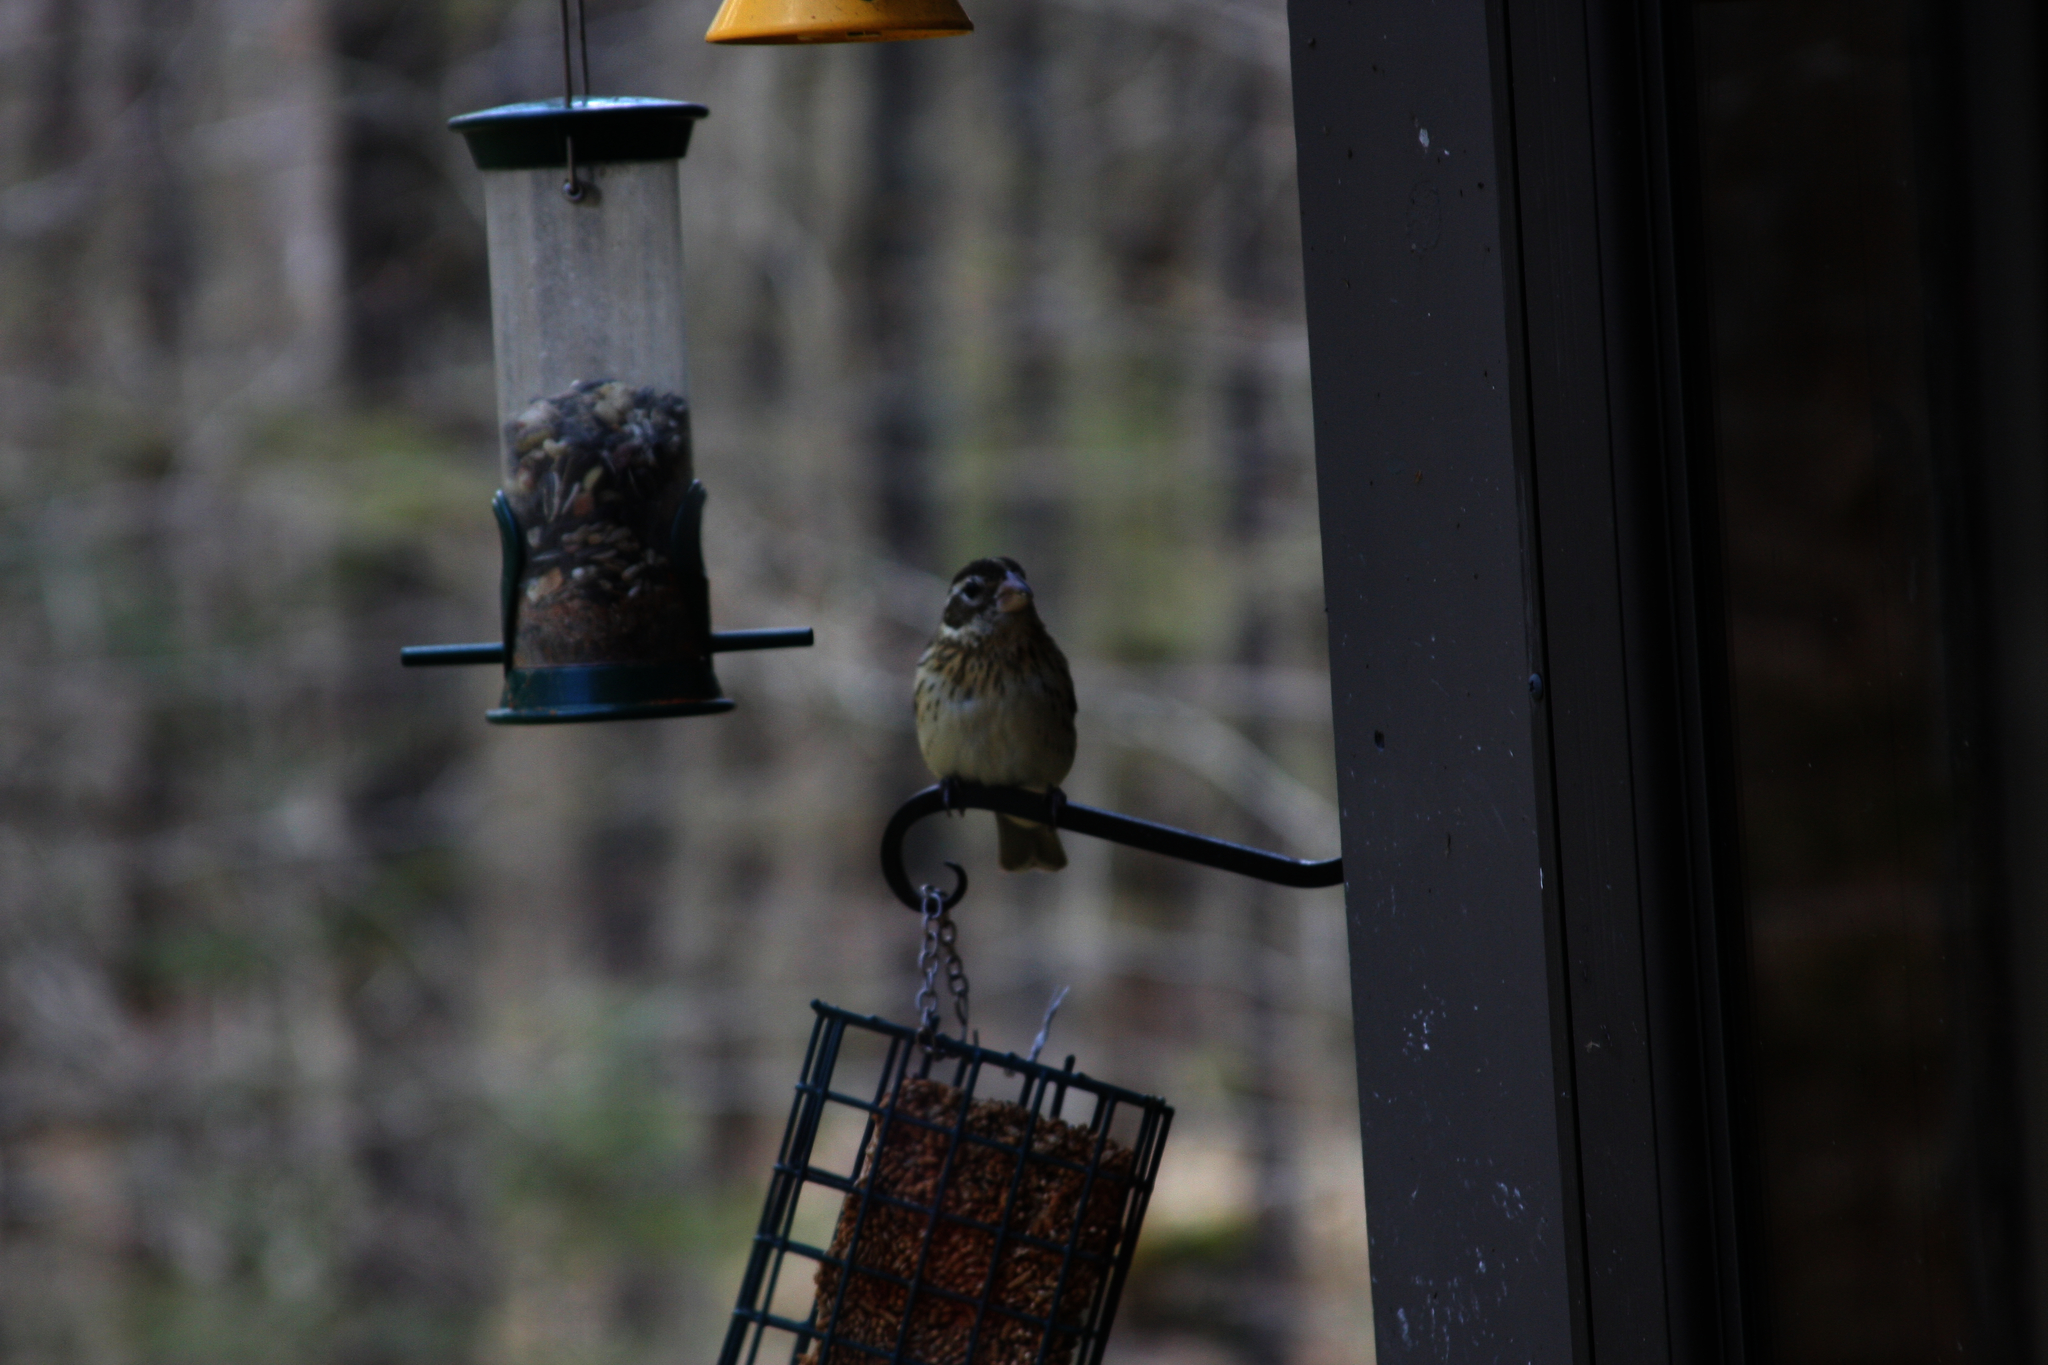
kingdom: Animalia
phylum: Chordata
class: Aves
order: Passeriformes
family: Cardinalidae
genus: Pheucticus
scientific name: Pheucticus ludovicianus
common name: Rose-breasted grosbeak
